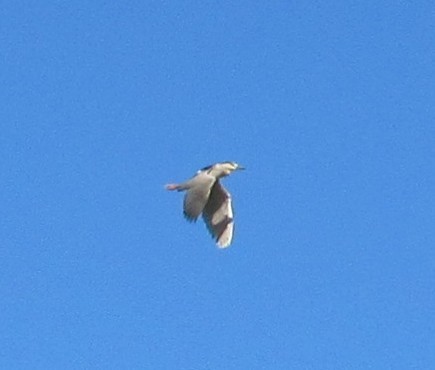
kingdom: Animalia
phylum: Chordata
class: Aves
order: Pelecaniformes
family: Ardeidae
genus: Nycticorax
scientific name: Nycticorax nycticorax
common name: Black-crowned night heron
